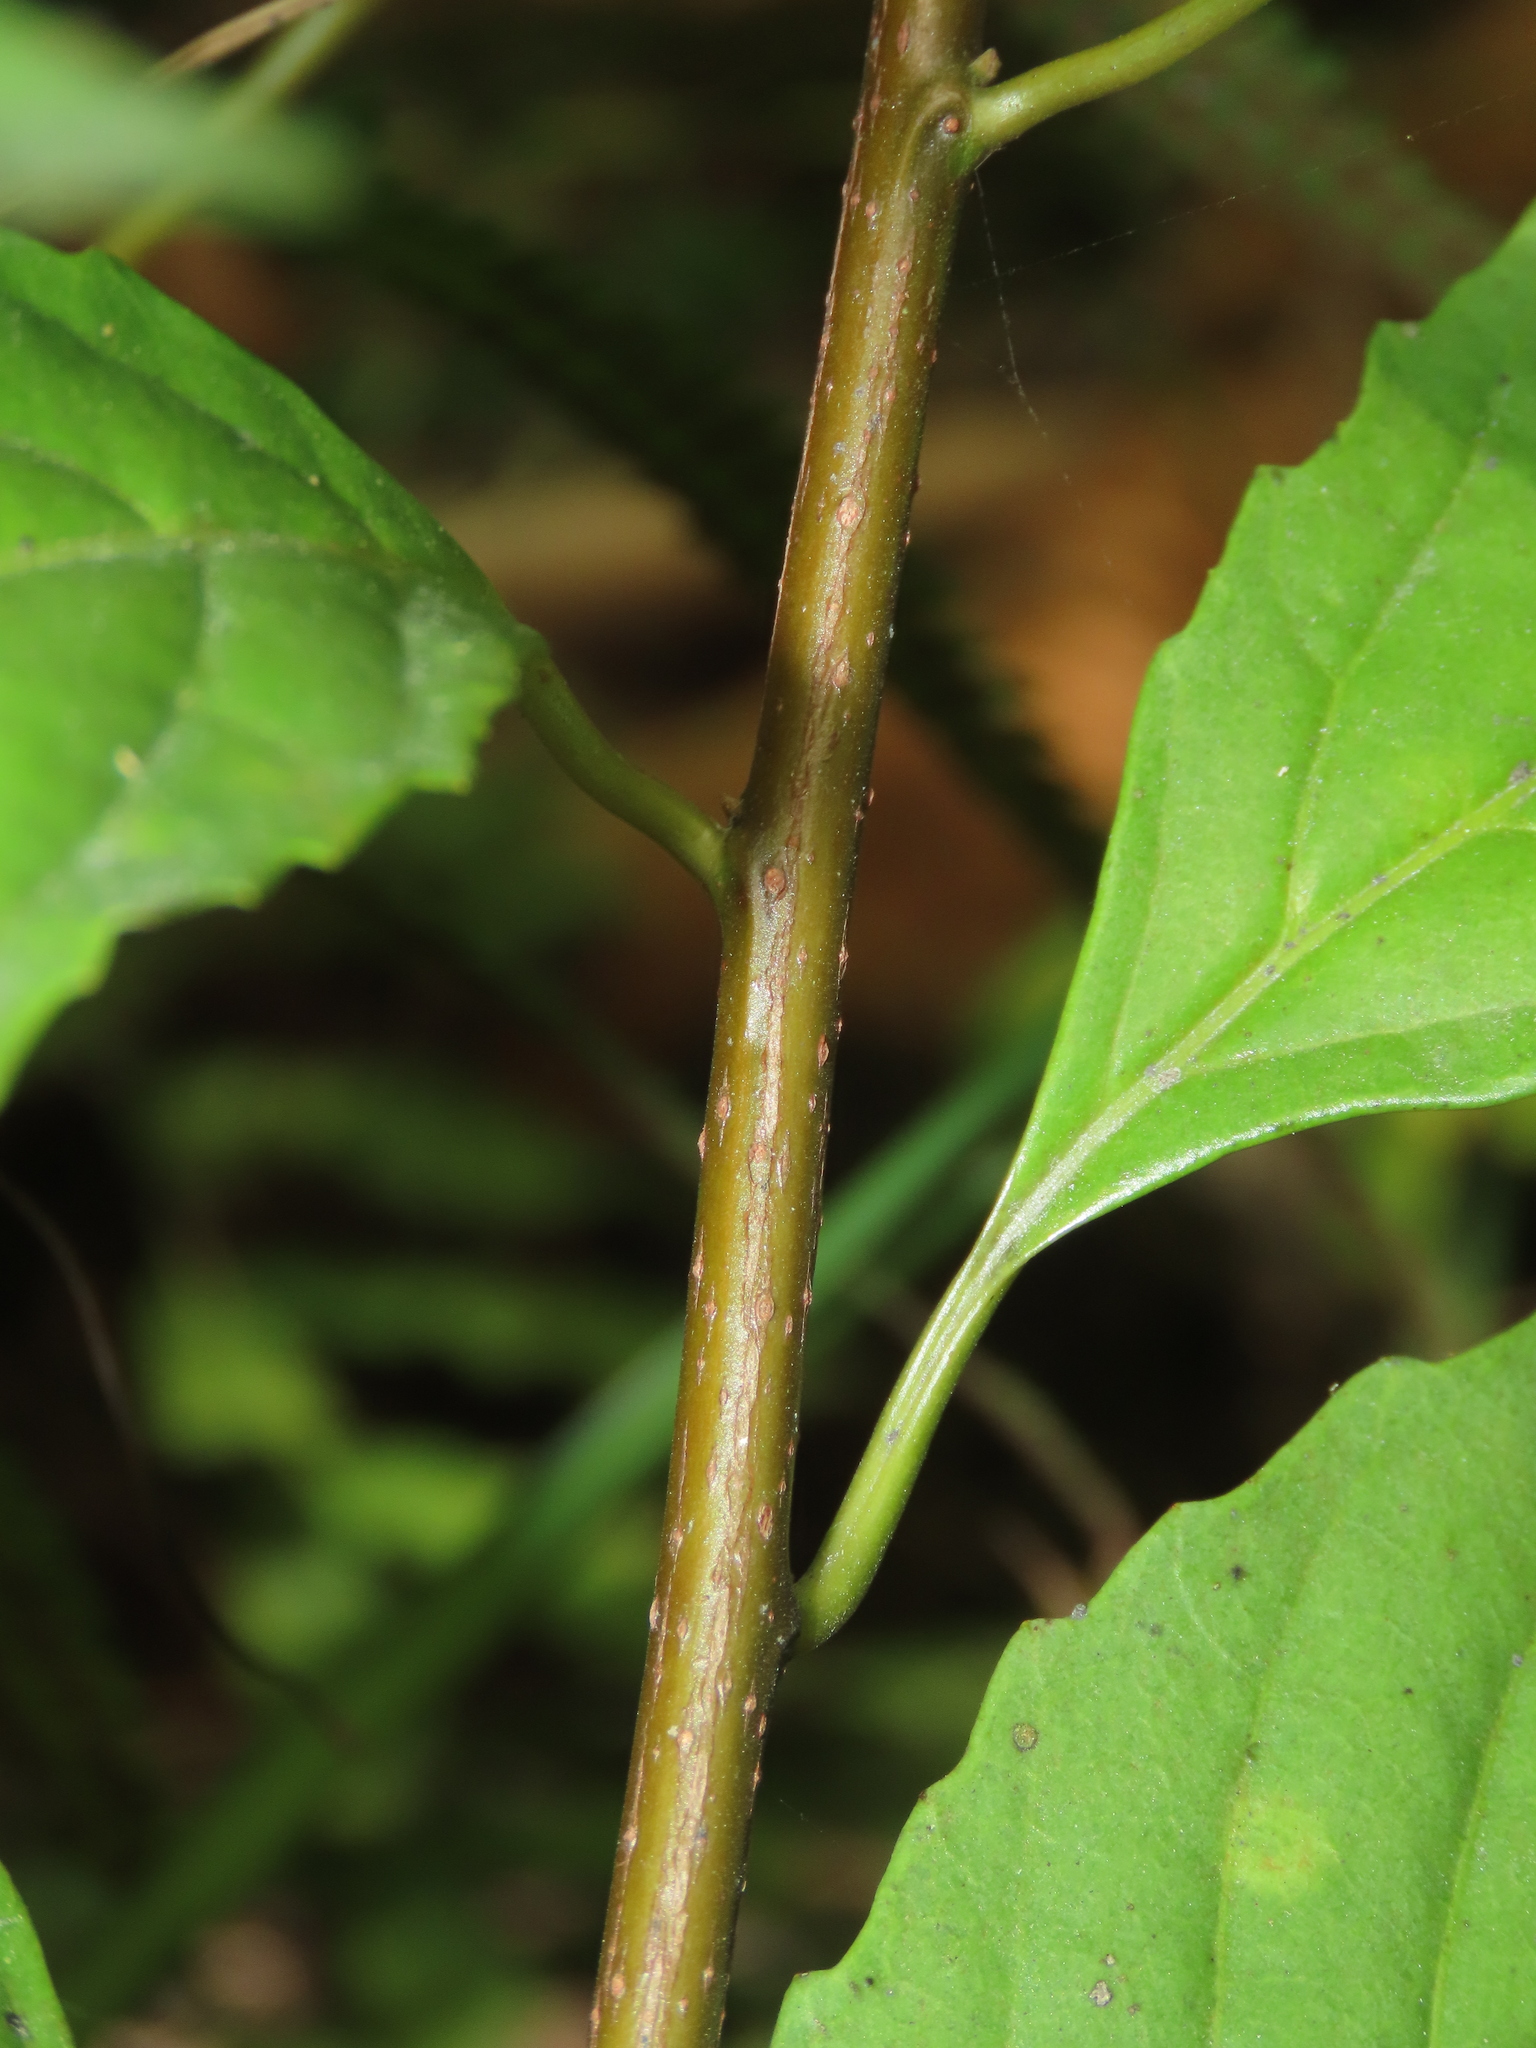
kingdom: Plantae
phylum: Tracheophyta
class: Magnoliopsida
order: Ericales
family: Primulaceae
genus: Maesa
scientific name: Maesa perlaria
